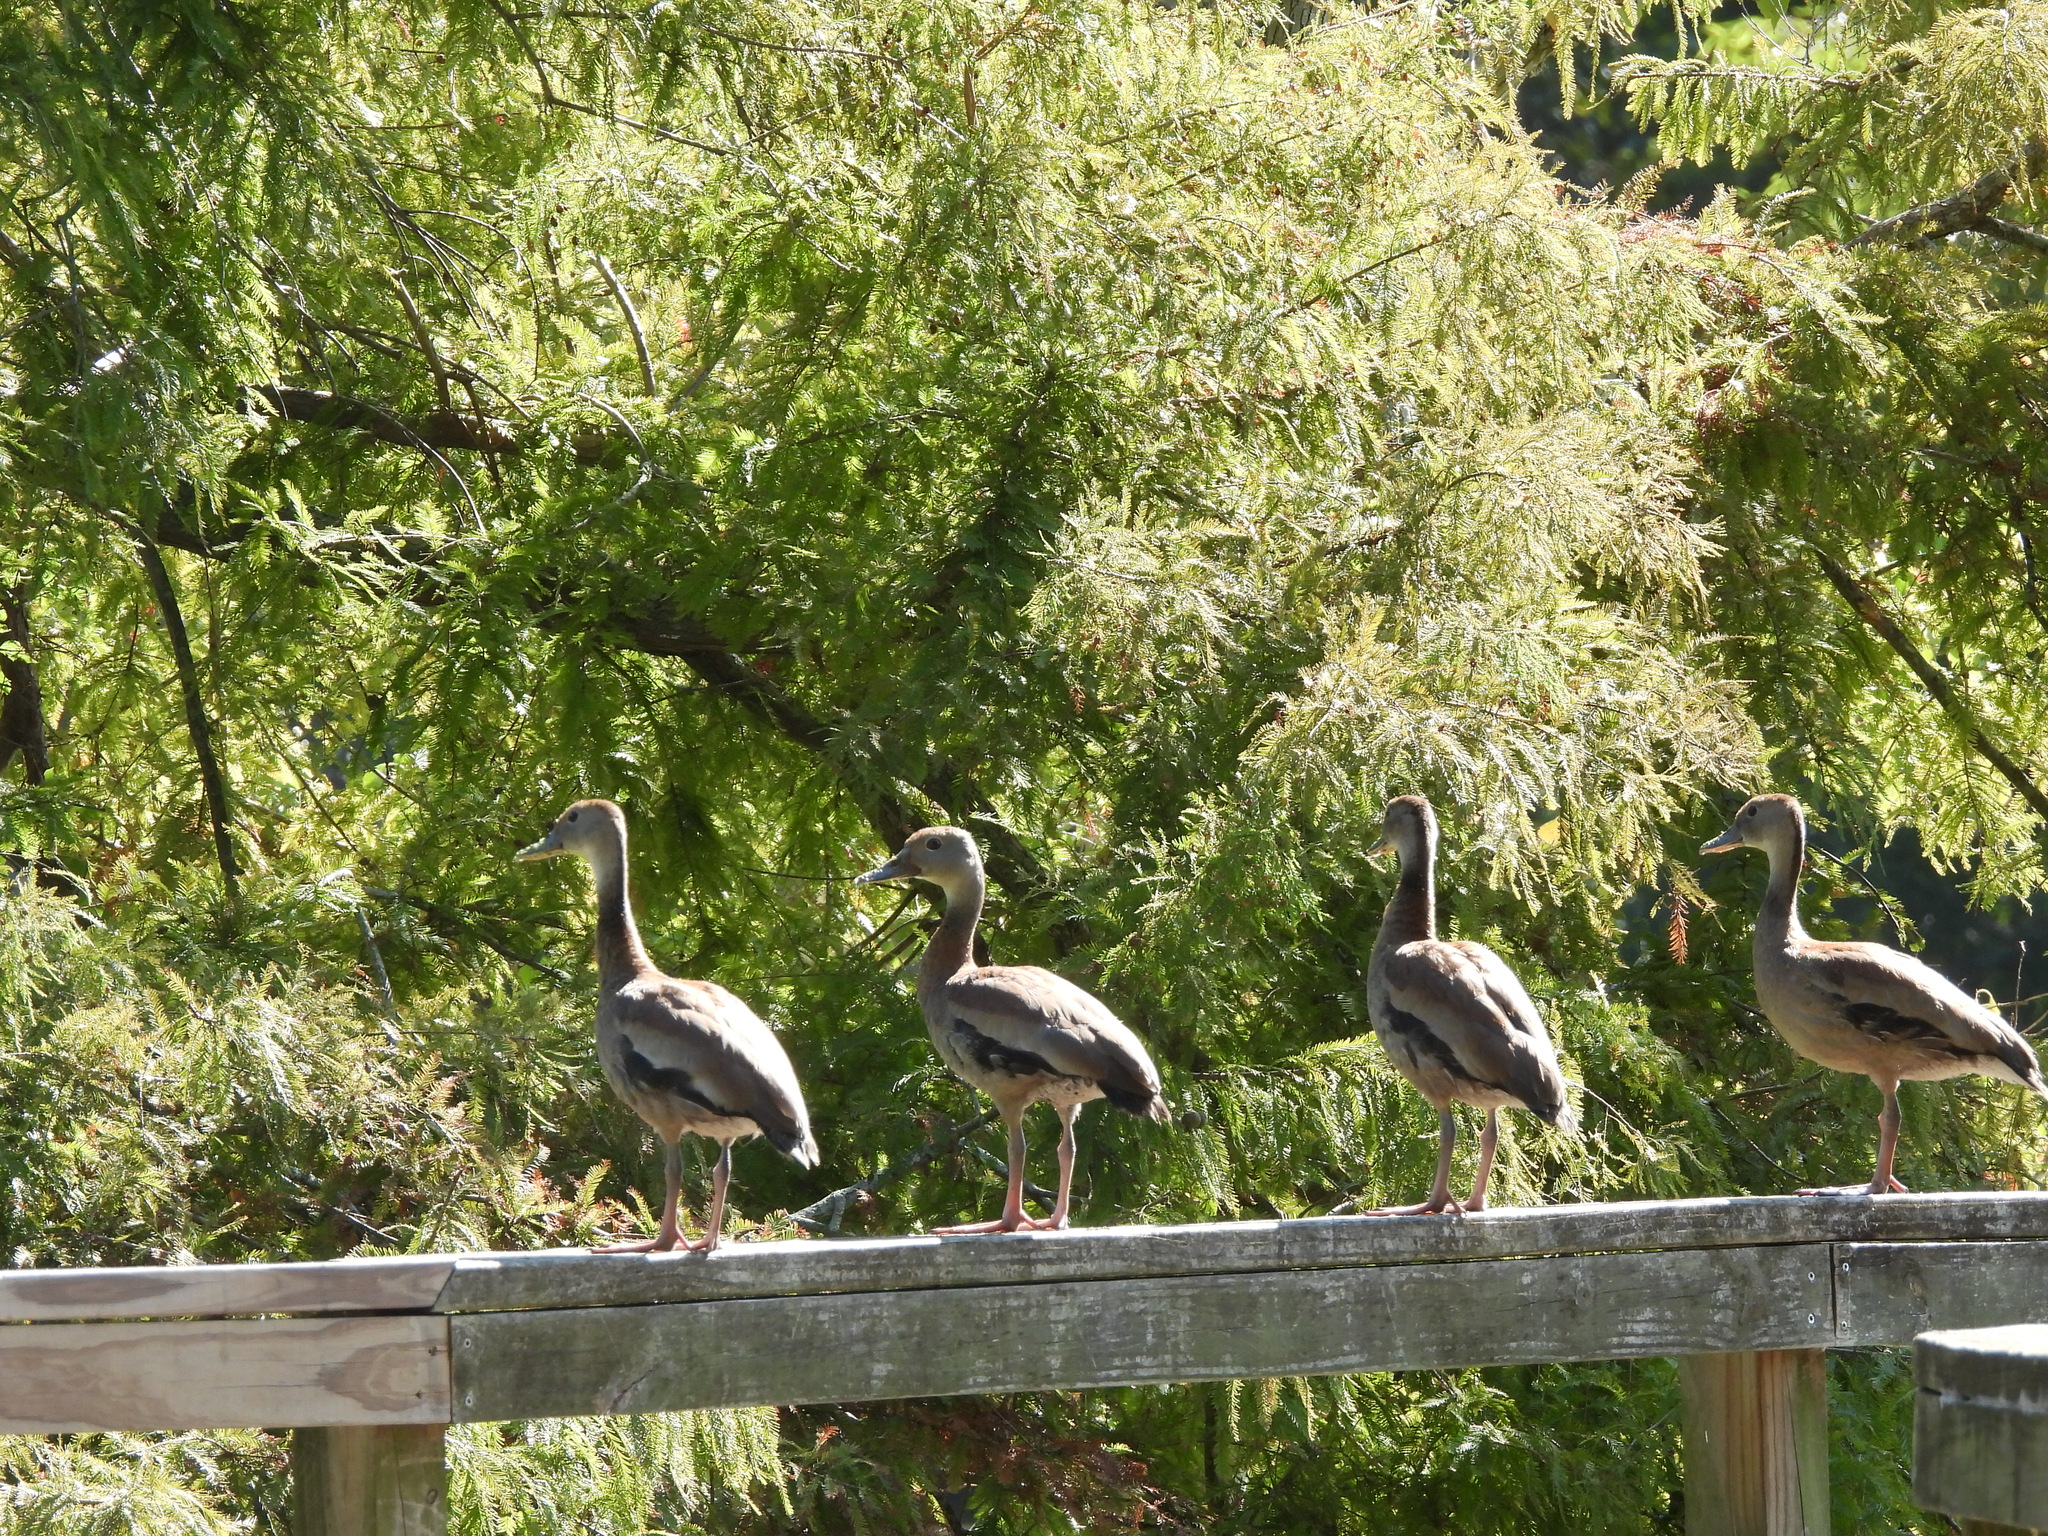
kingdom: Animalia
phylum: Chordata
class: Aves
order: Anseriformes
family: Anatidae
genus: Dendrocygna
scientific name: Dendrocygna autumnalis
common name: Black-bellied whistling duck
